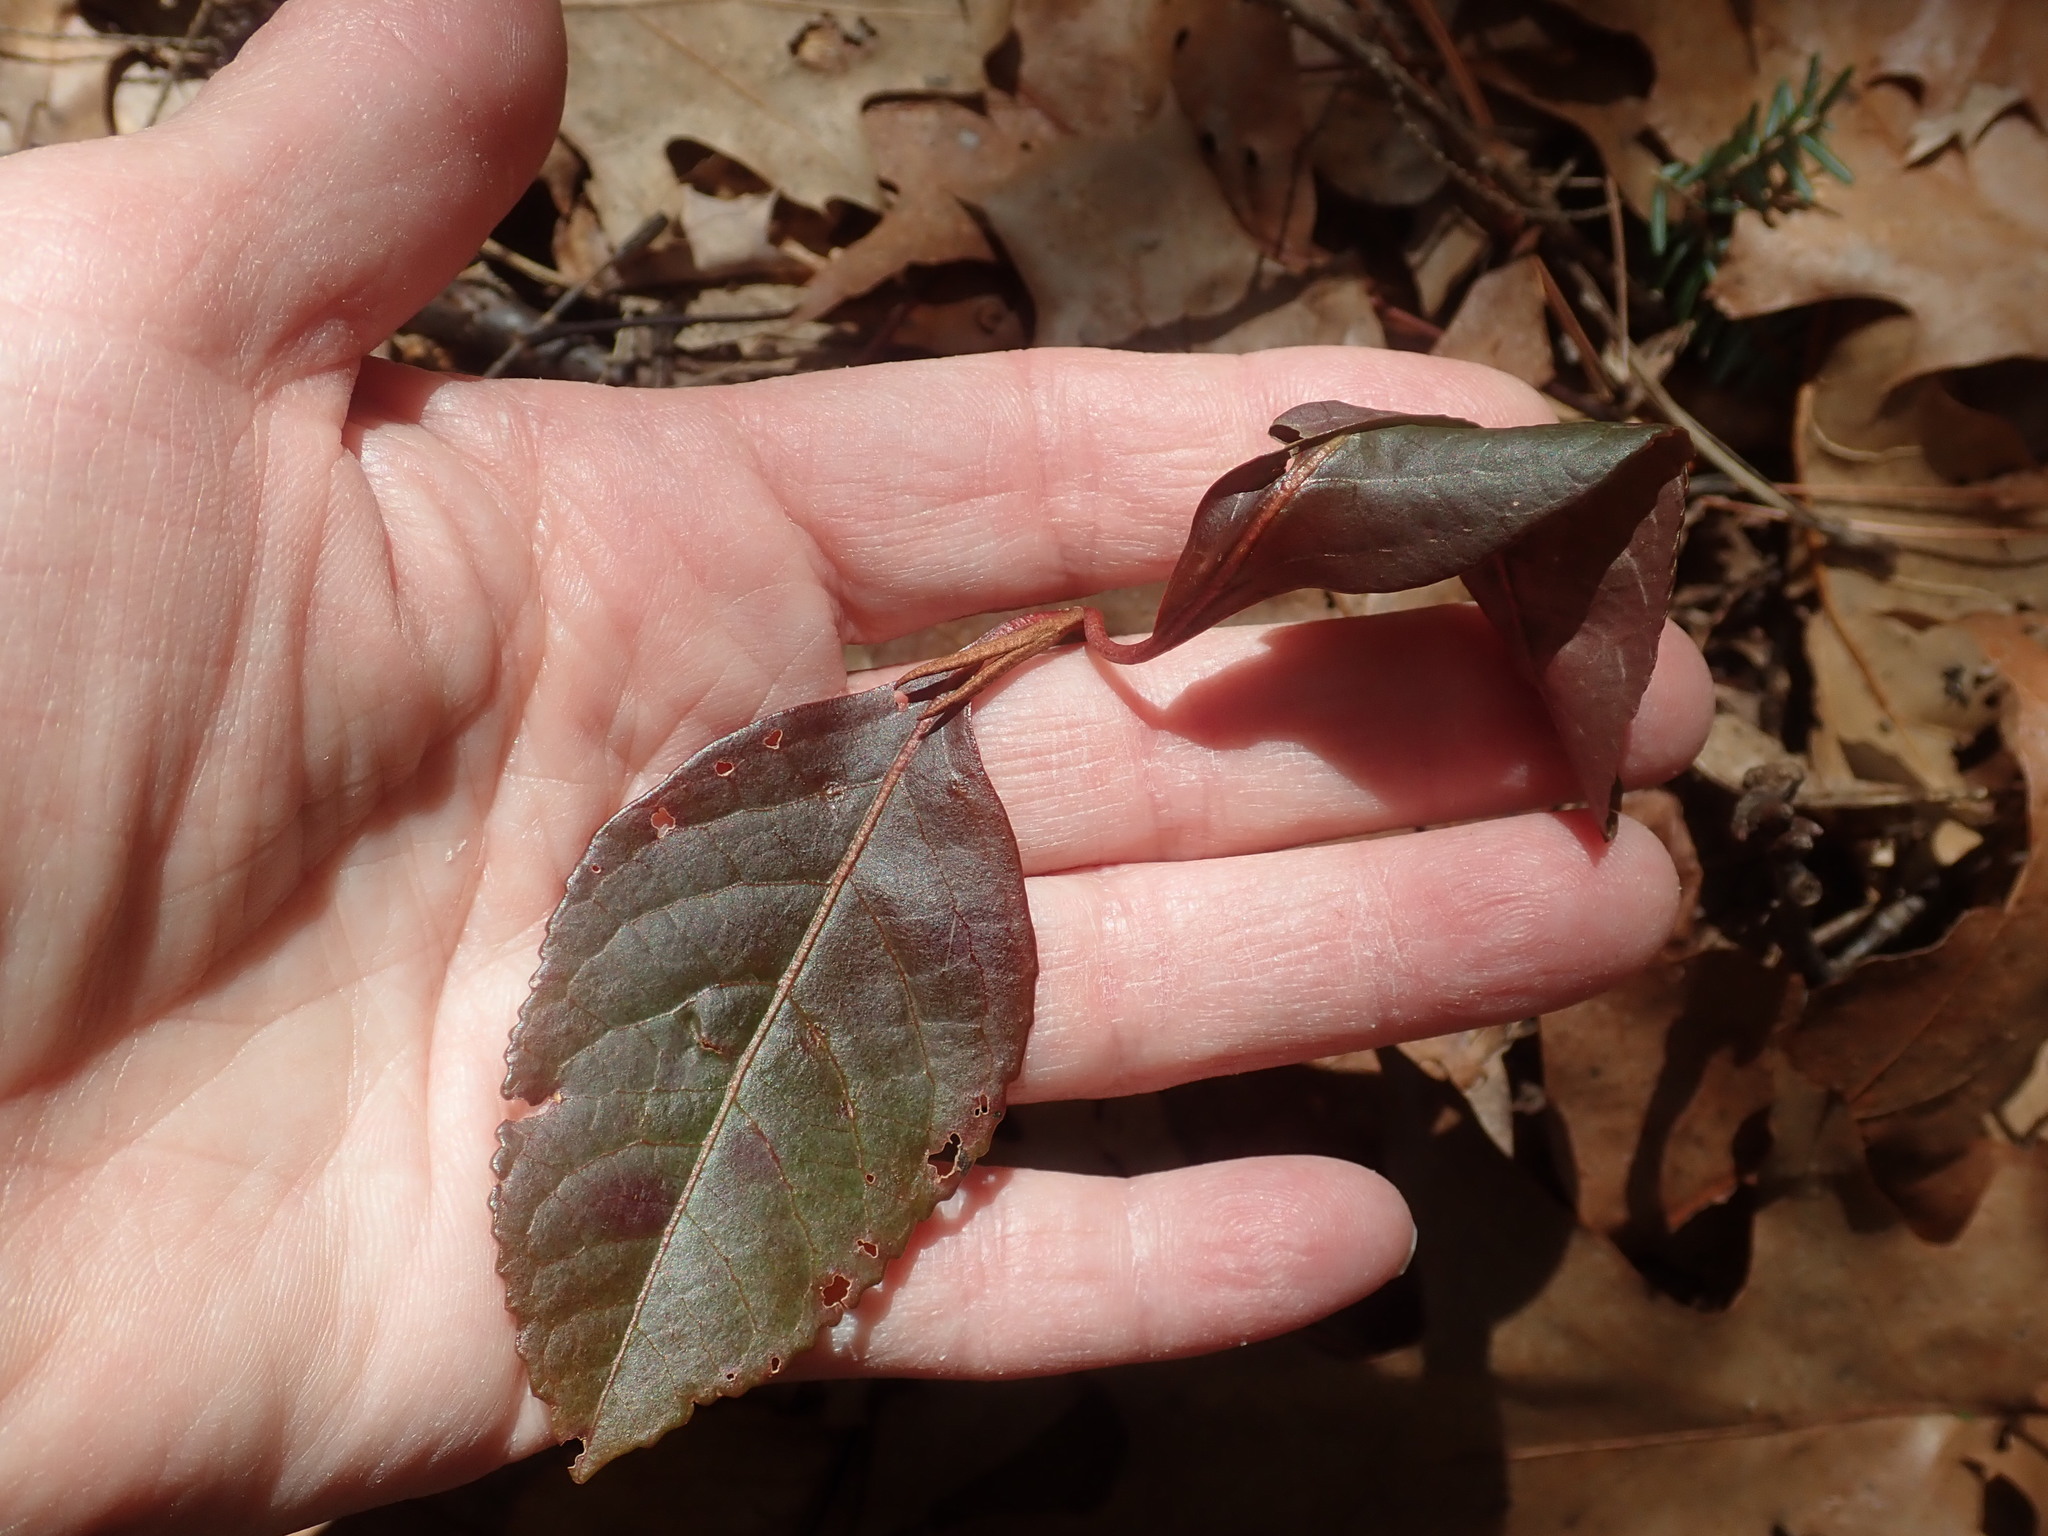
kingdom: Plantae
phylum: Tracheophyta
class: Magnoliopsida
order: Dipsacales
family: Viburnaceae
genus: Viburnum
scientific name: Viburnum cassinoides
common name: Swamp haw
